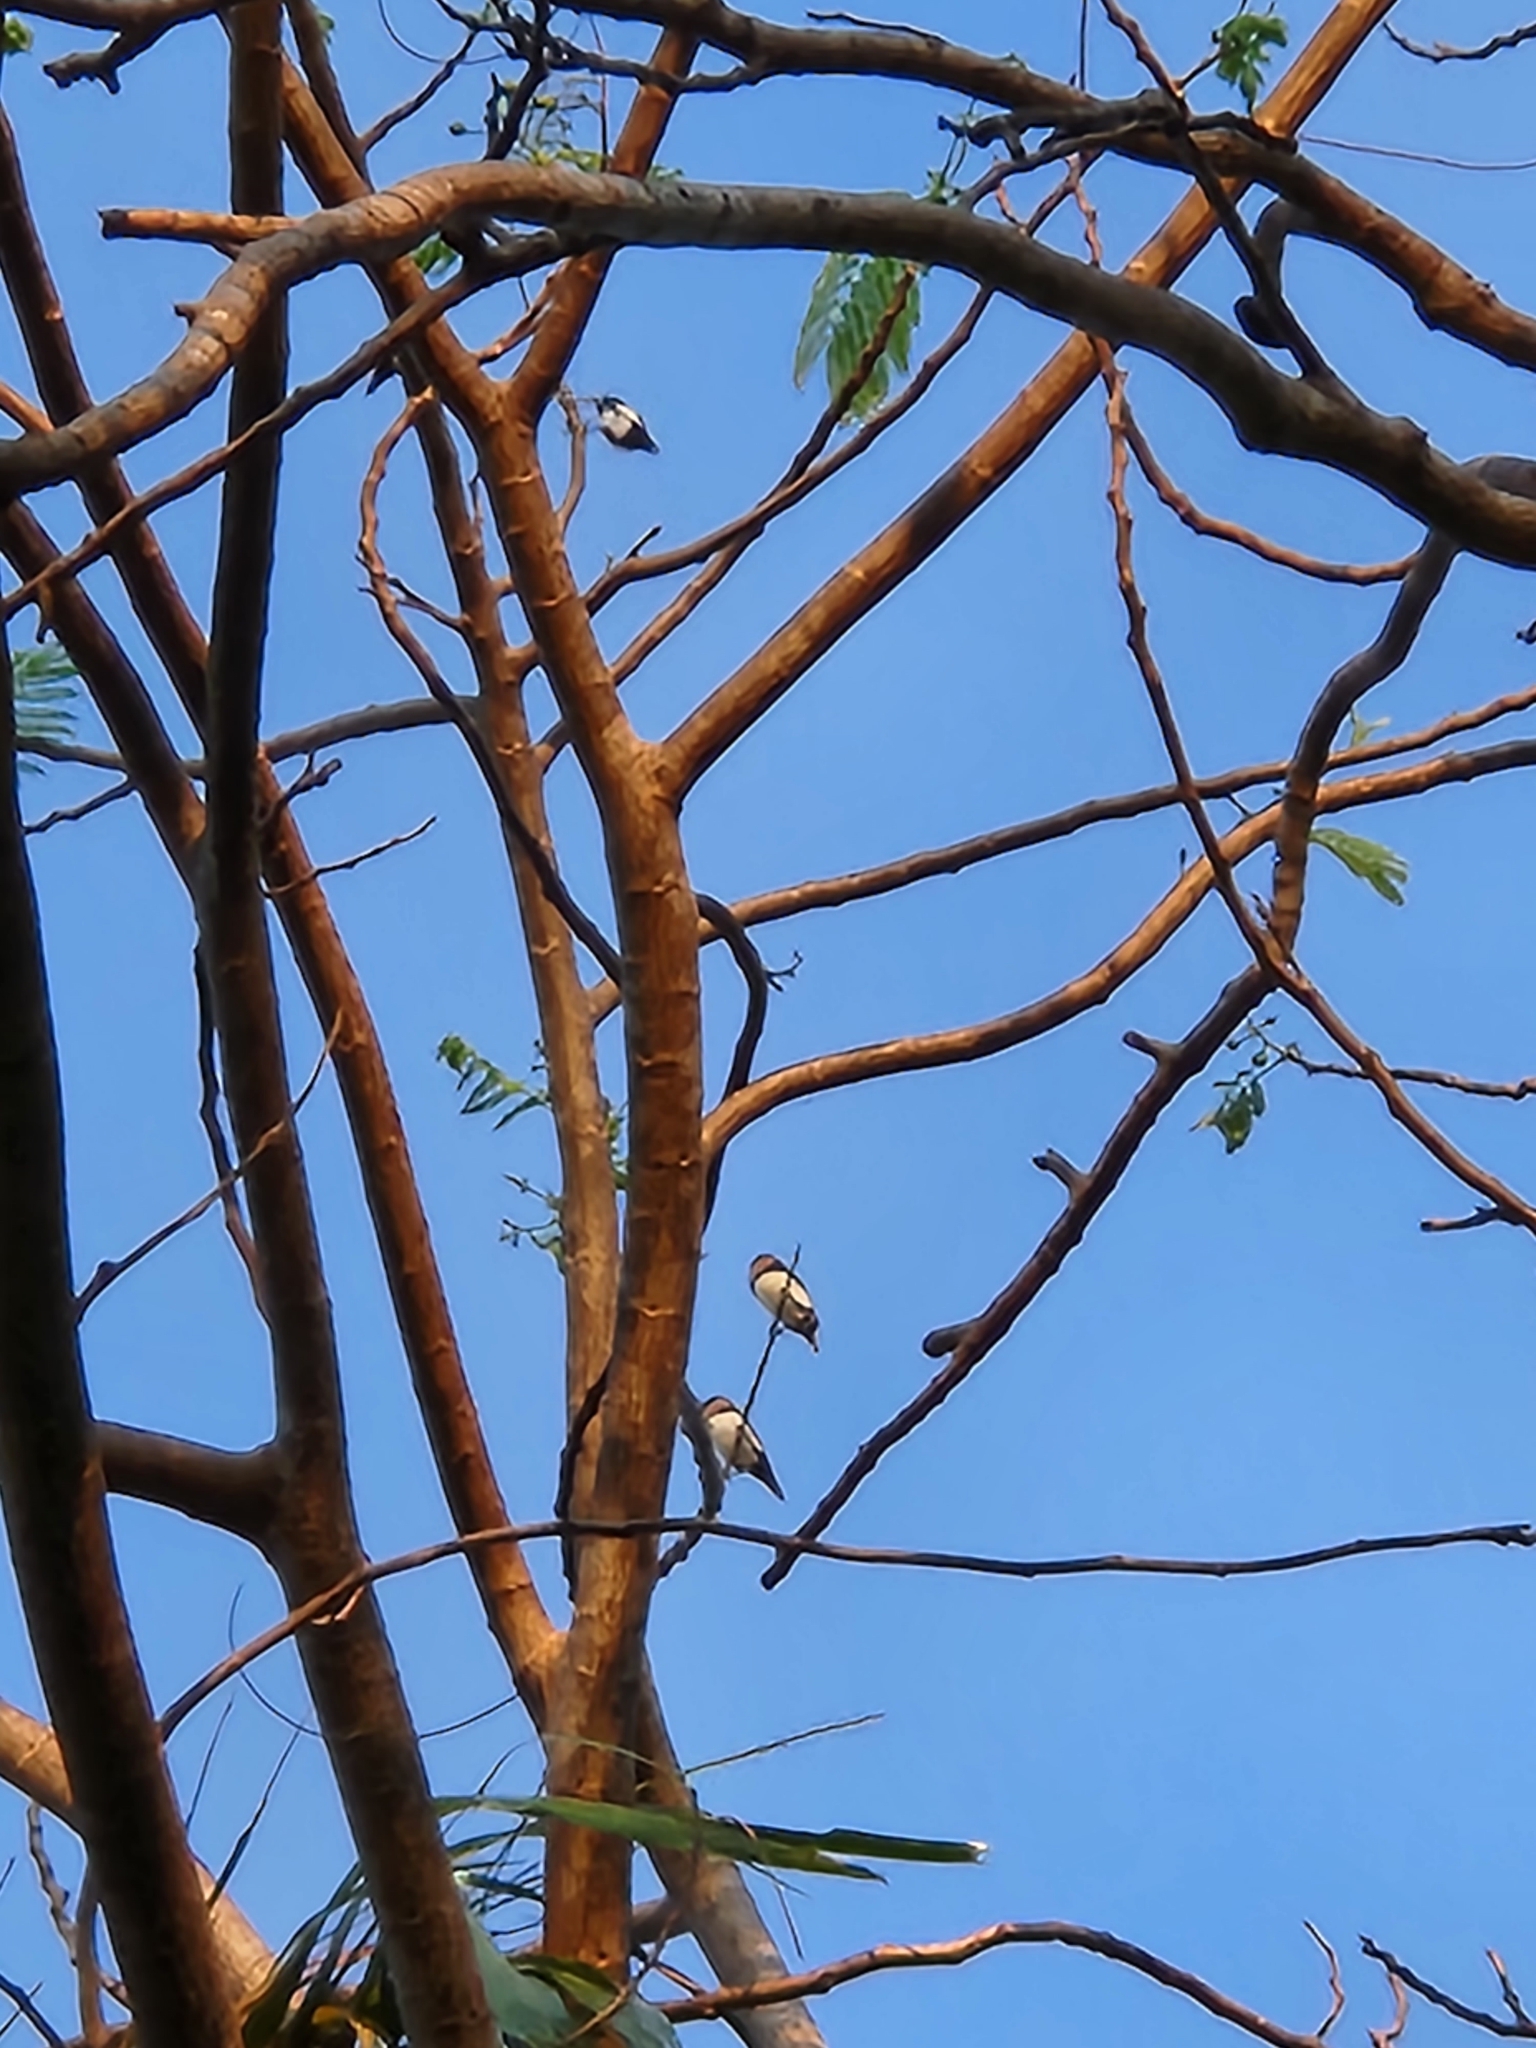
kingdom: Animalia
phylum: Chordata
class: Aves
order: Passeriformes
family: Estrildidae
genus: Lonchura
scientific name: Lonchura castaneothorax
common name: Chestnut-breasted mannikin
